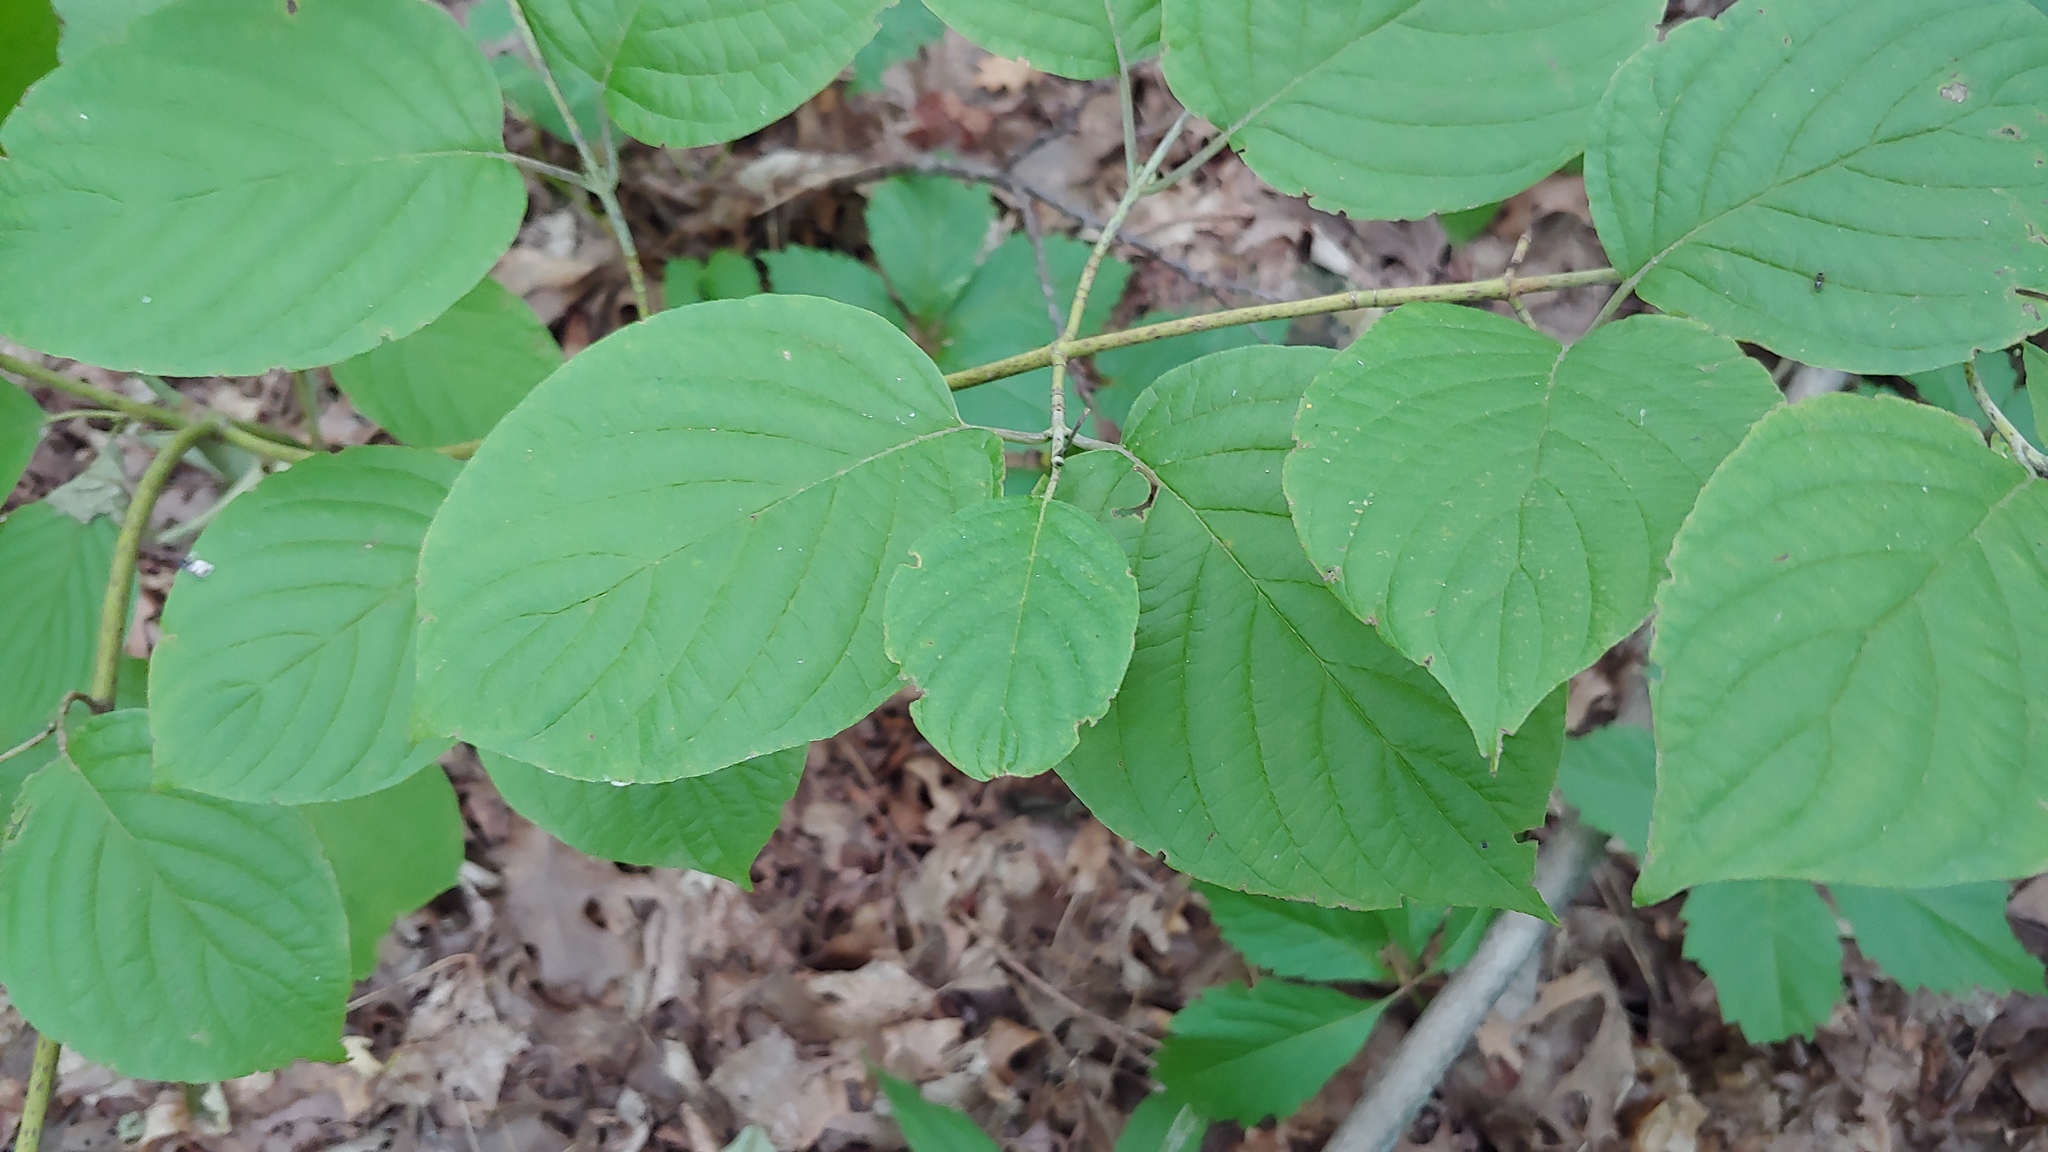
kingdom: Plantae
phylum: Tracheophyta
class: Magnoliopsida
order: Cornales
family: Cornaceae
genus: Cornus
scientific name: Cornus rugosa
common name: Round-leaf dogwood
